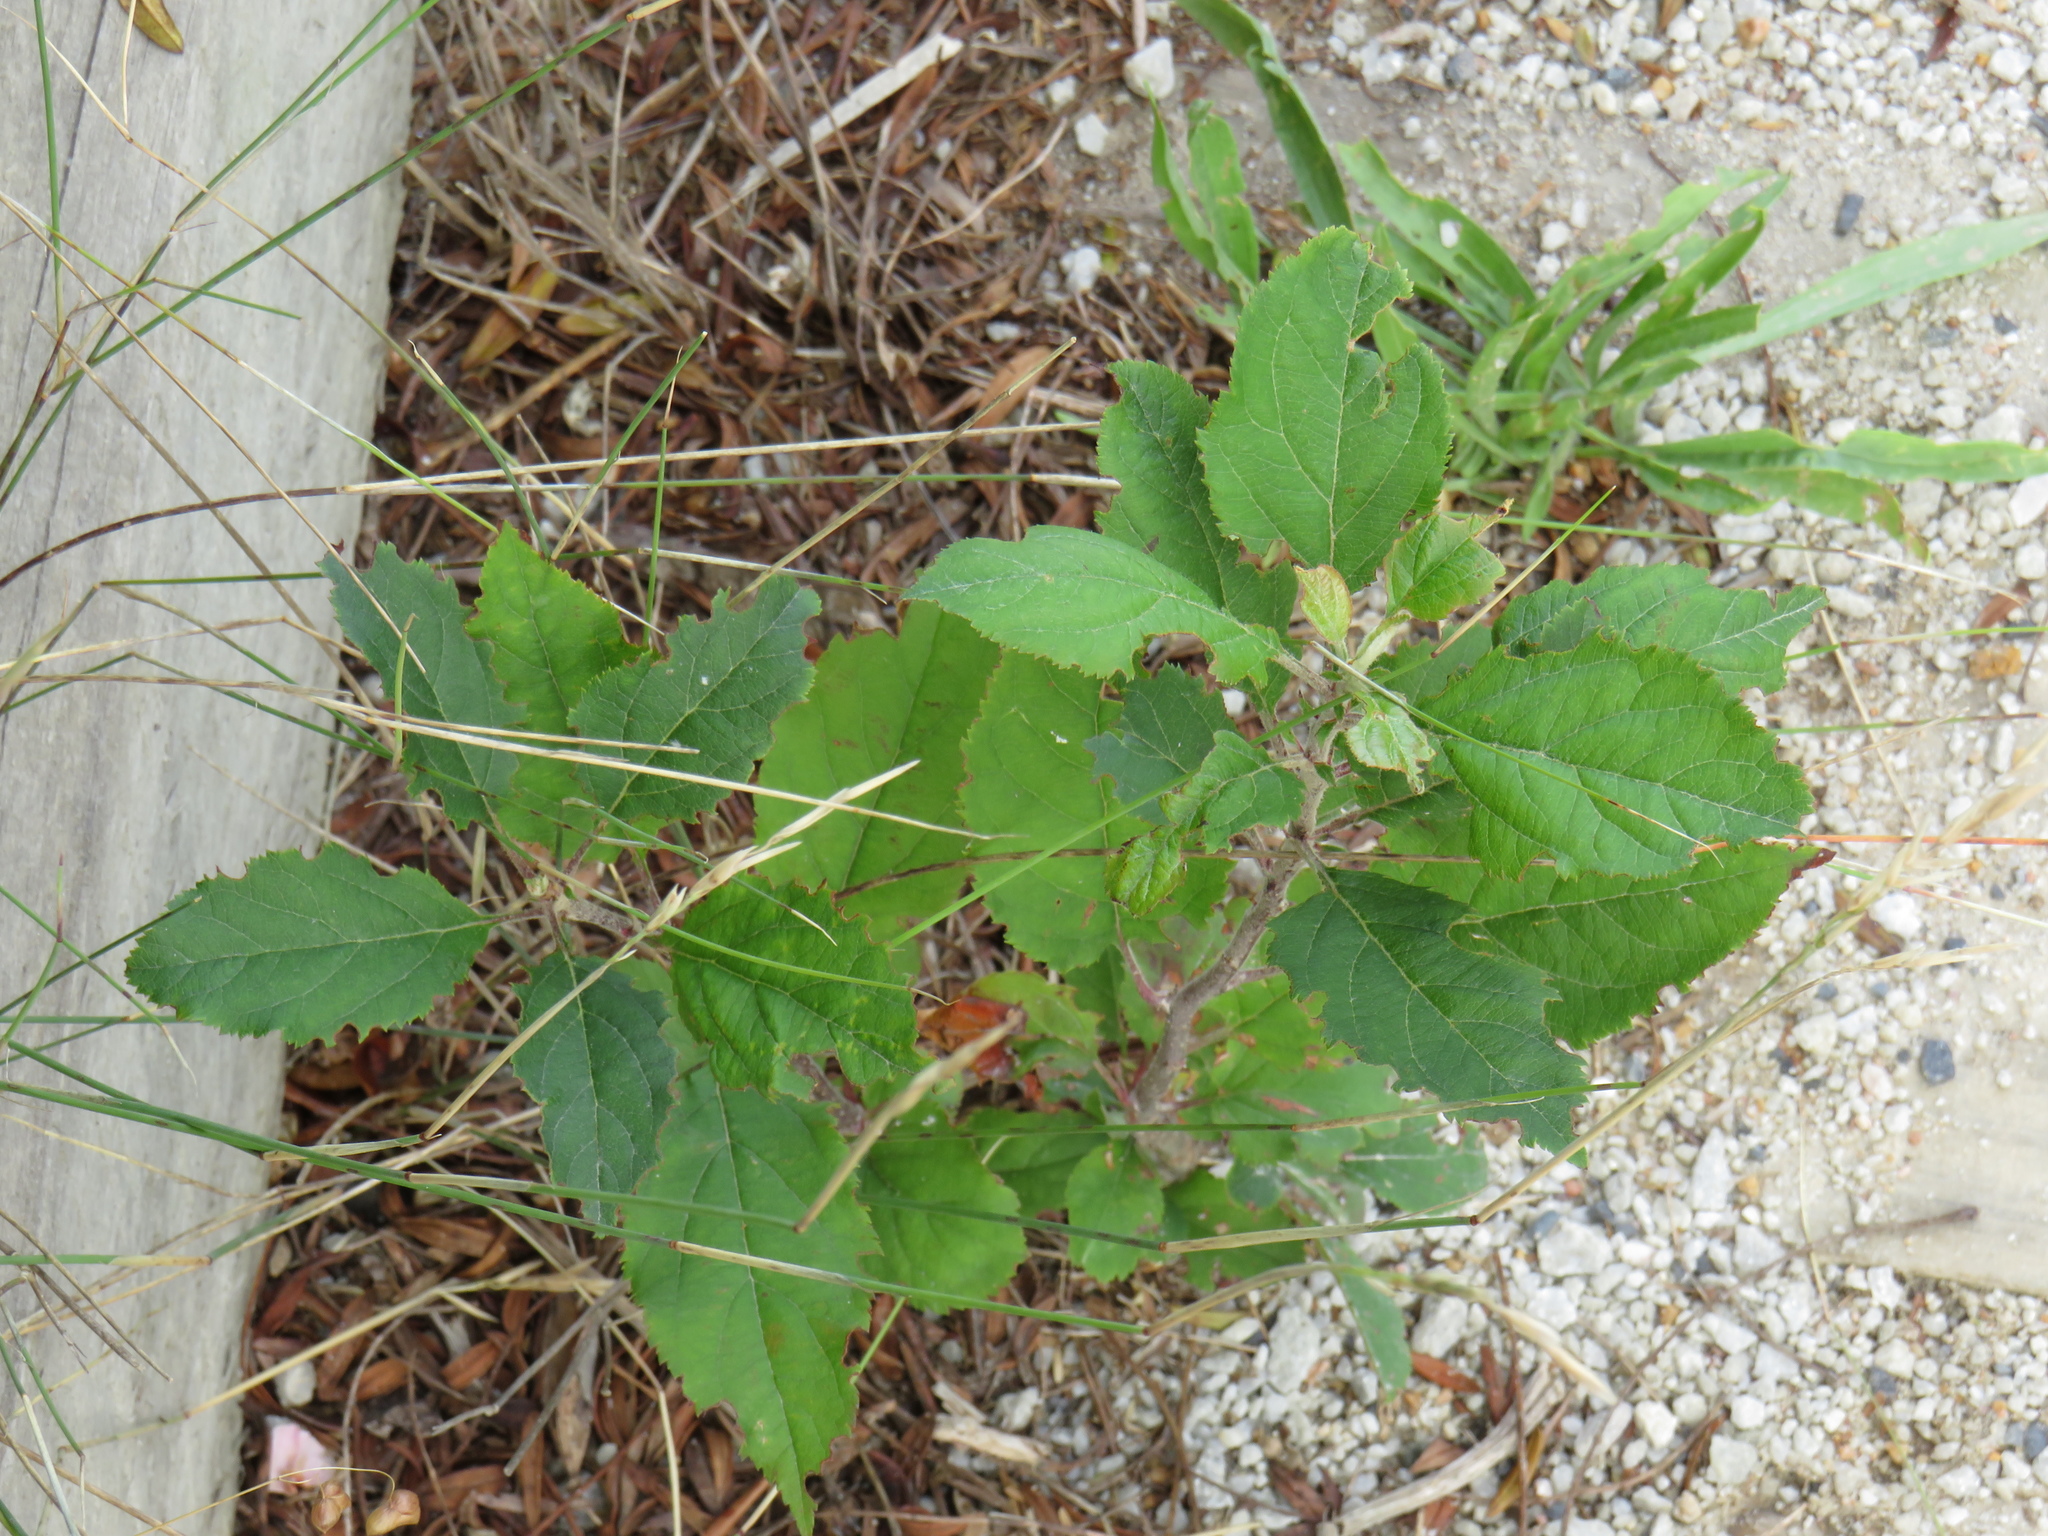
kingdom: Plantae
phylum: Tracheophyta
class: Magnoliopsida
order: Rosales
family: Rosaceae
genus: Malus
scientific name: Malus domestica
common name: Apple
